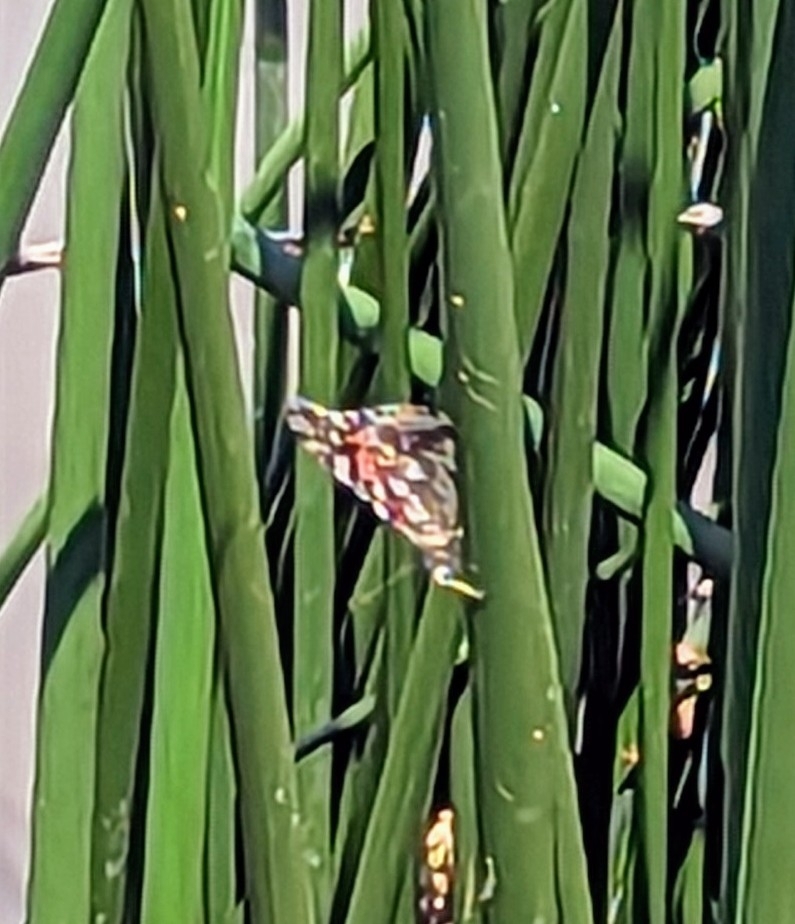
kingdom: Animalia
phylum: Arthropoda
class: Insecta
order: Lepidoptera
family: Nymphalidae
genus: Vanessa
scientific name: Vanessa cardui
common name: Painted lady
